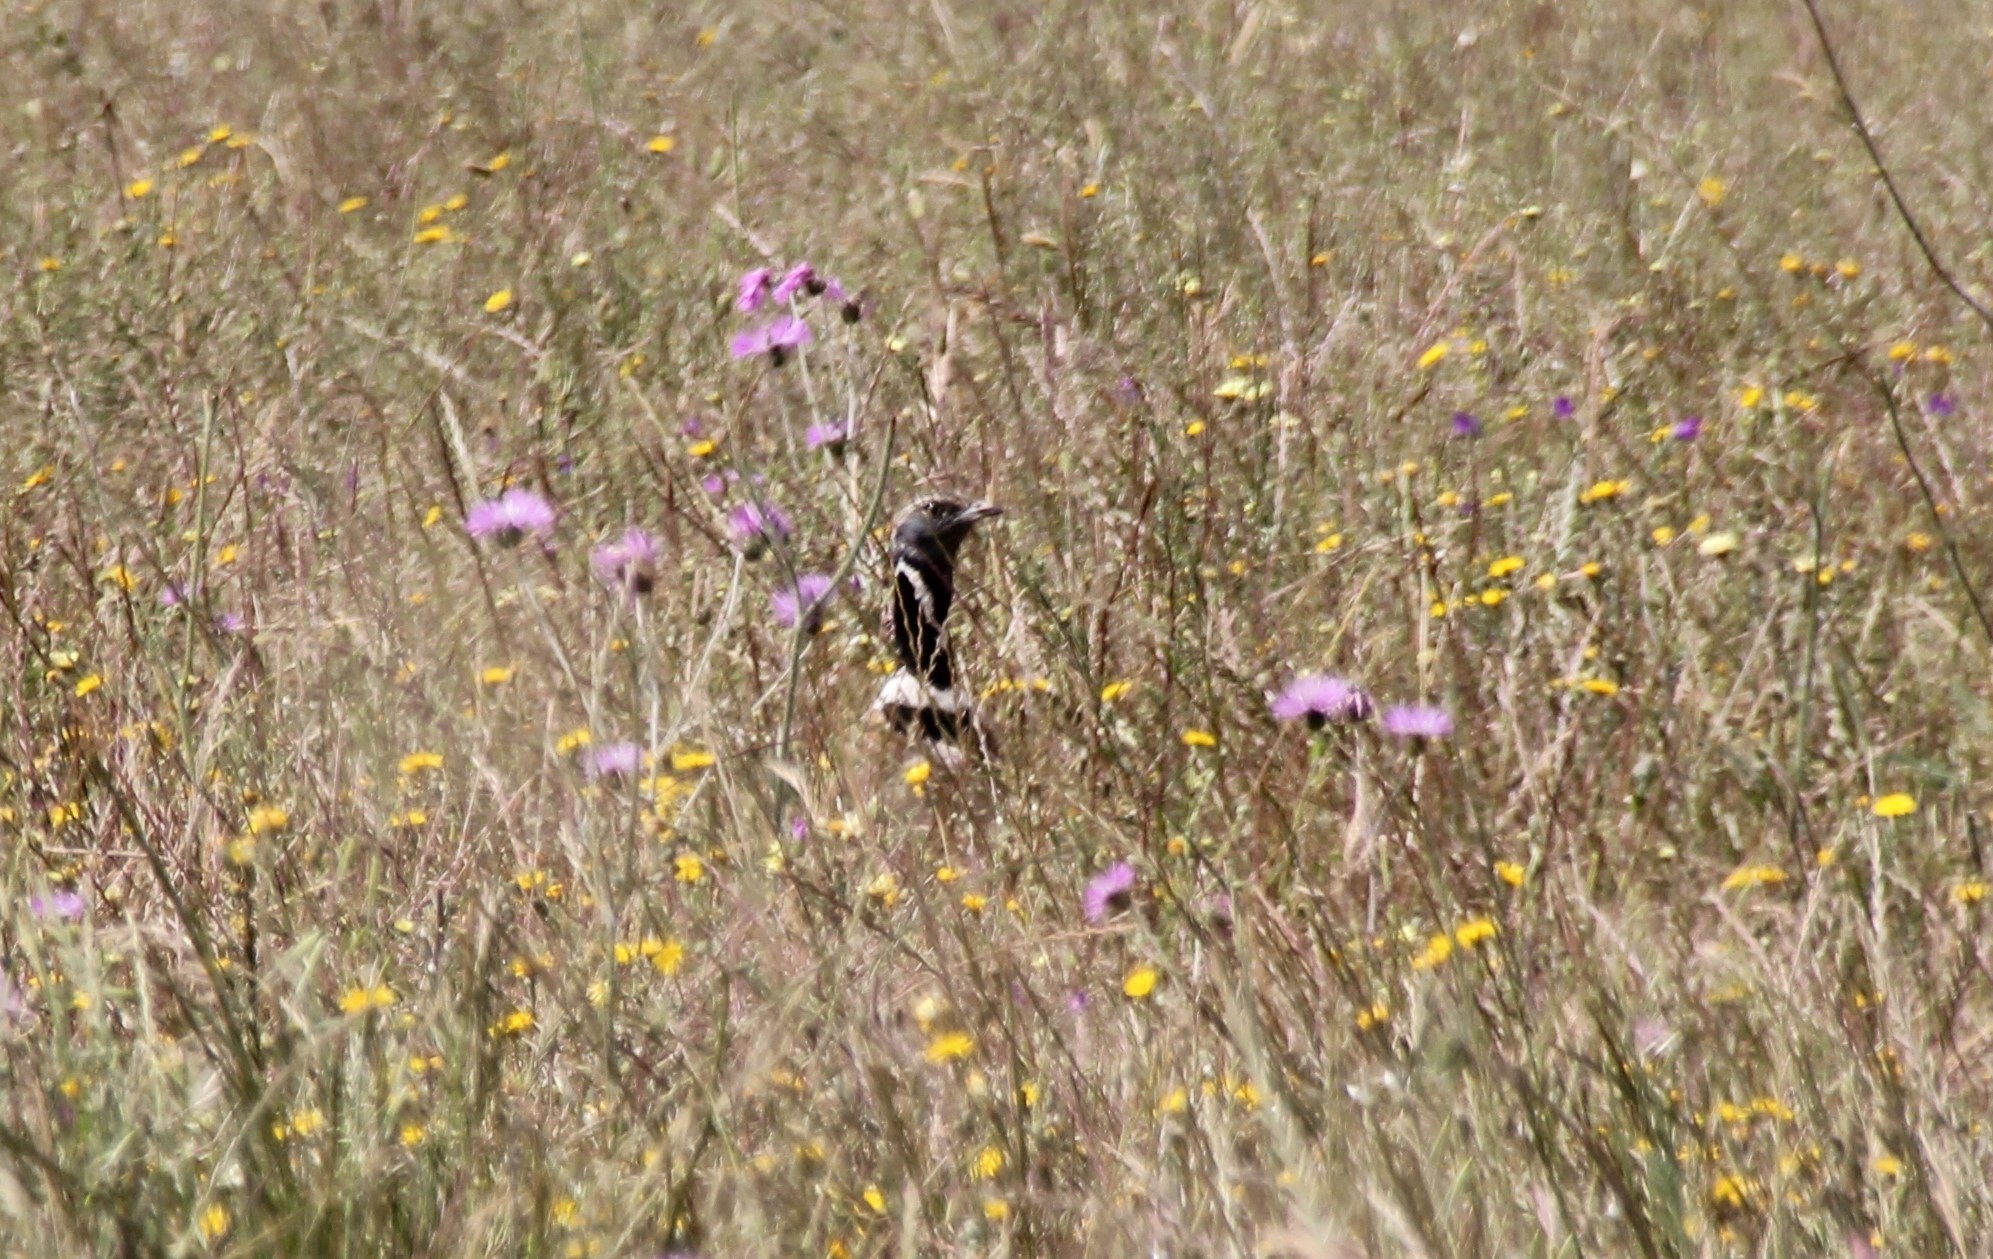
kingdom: Animalia
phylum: Chordata
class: Aves
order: Otidiformes
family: Otididae
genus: Tetrax
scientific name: Tetrax tetrax
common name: Little bustard
